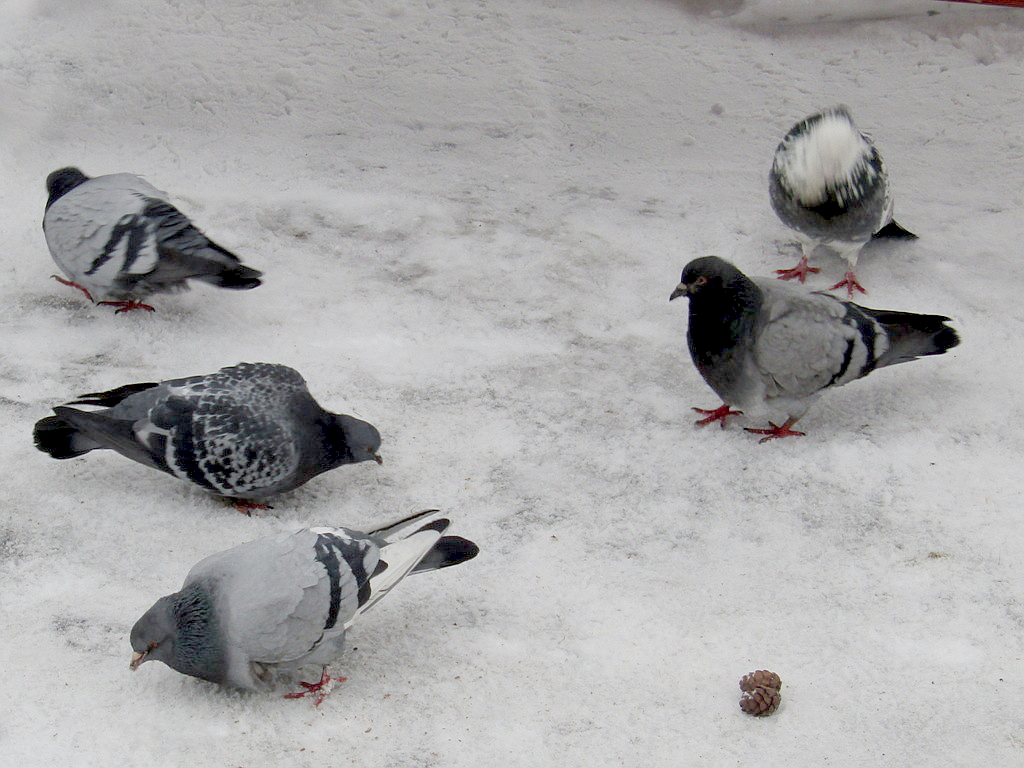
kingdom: Animalia
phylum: Chordata
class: Aves
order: Columbiformes
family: Columbidae
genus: Columba
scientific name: Columba livia
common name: Rock pigeon
